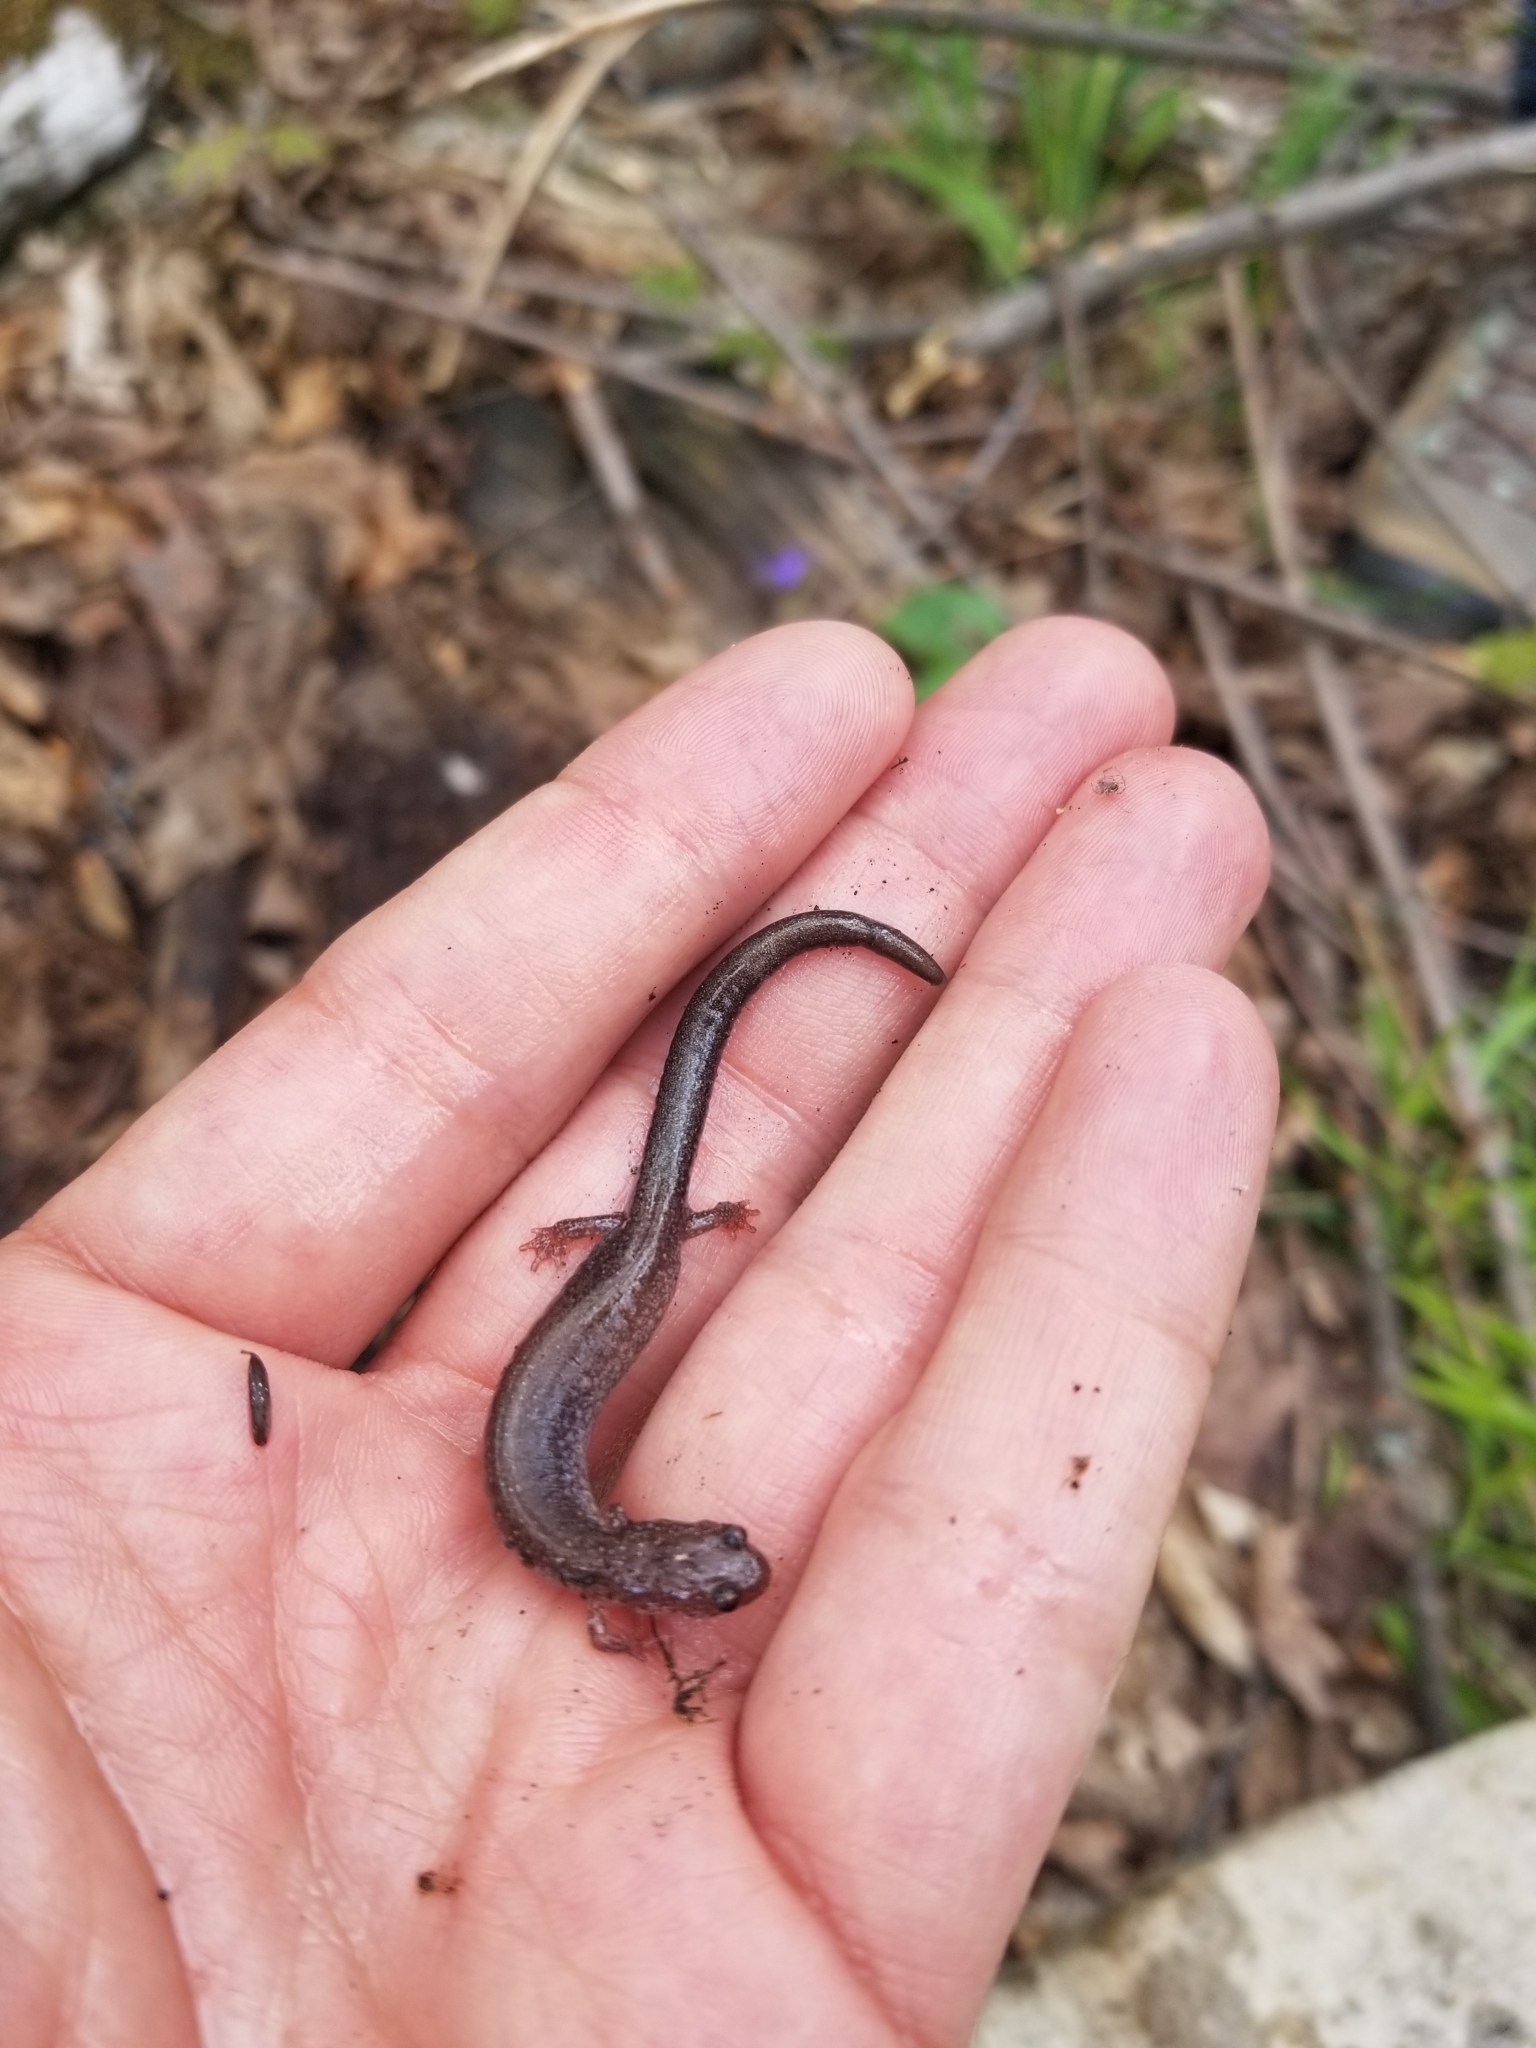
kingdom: Animalia
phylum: Chordata
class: Amphibia
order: Caudata
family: Plethodontidae
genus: Plethodon
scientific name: Plethodon cinereus
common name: Redback salamander
